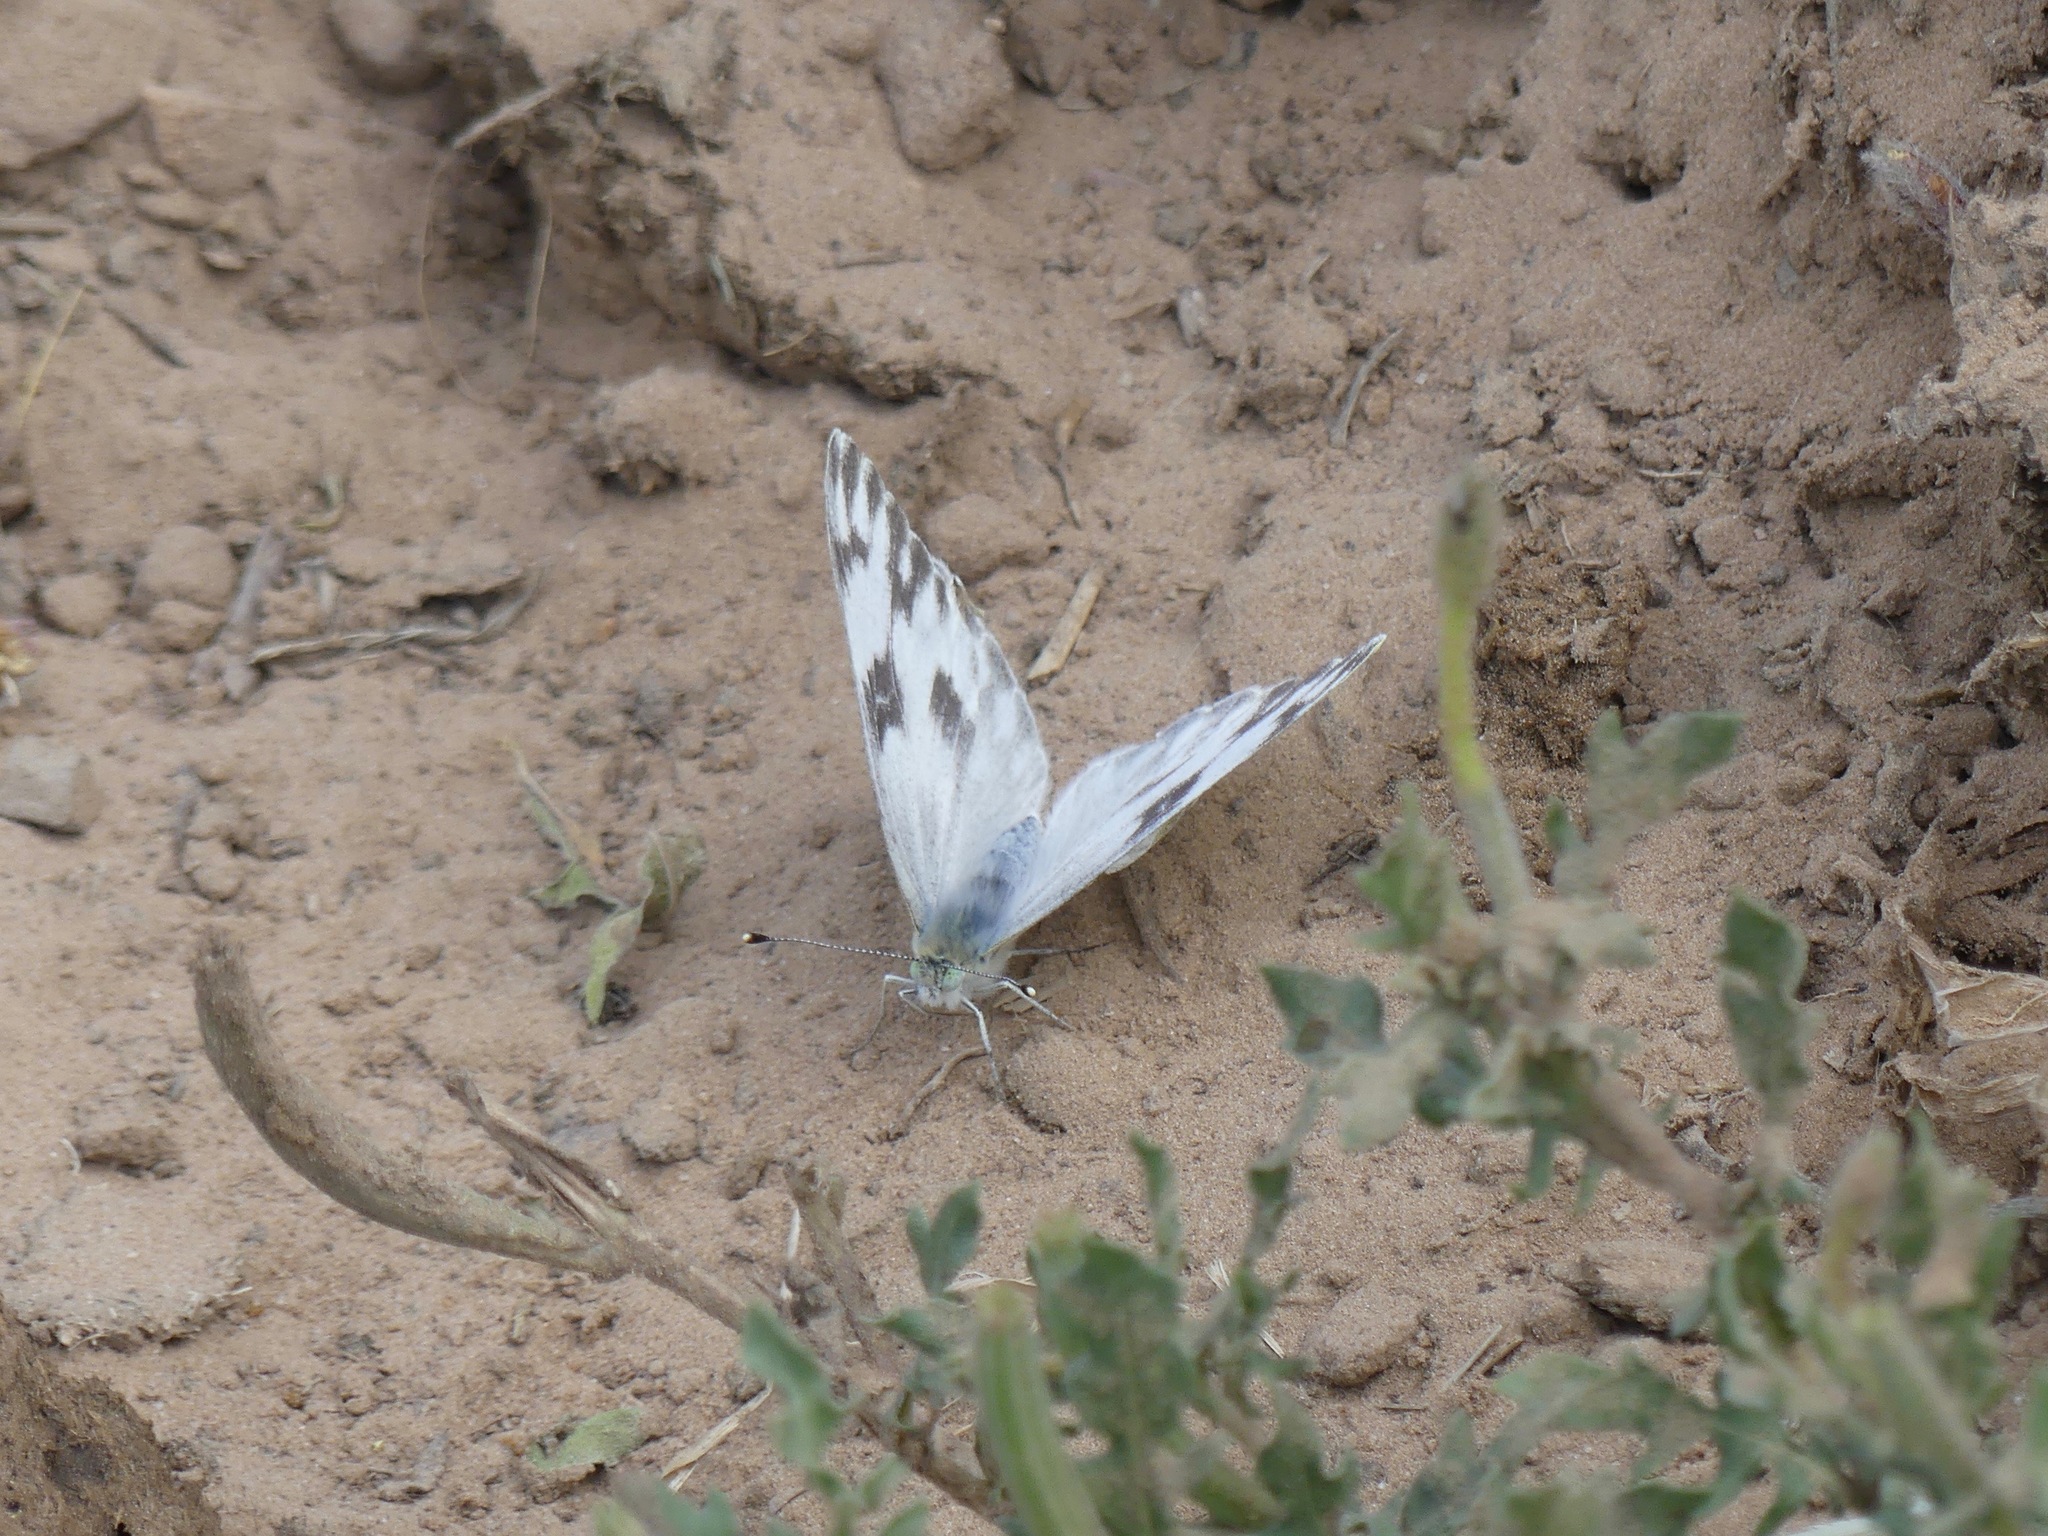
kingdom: Animalia
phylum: Arthropoda
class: Insecta
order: Lepidoptera
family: Pieridae
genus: Pontia
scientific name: Pontia protodice
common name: Checkered white
